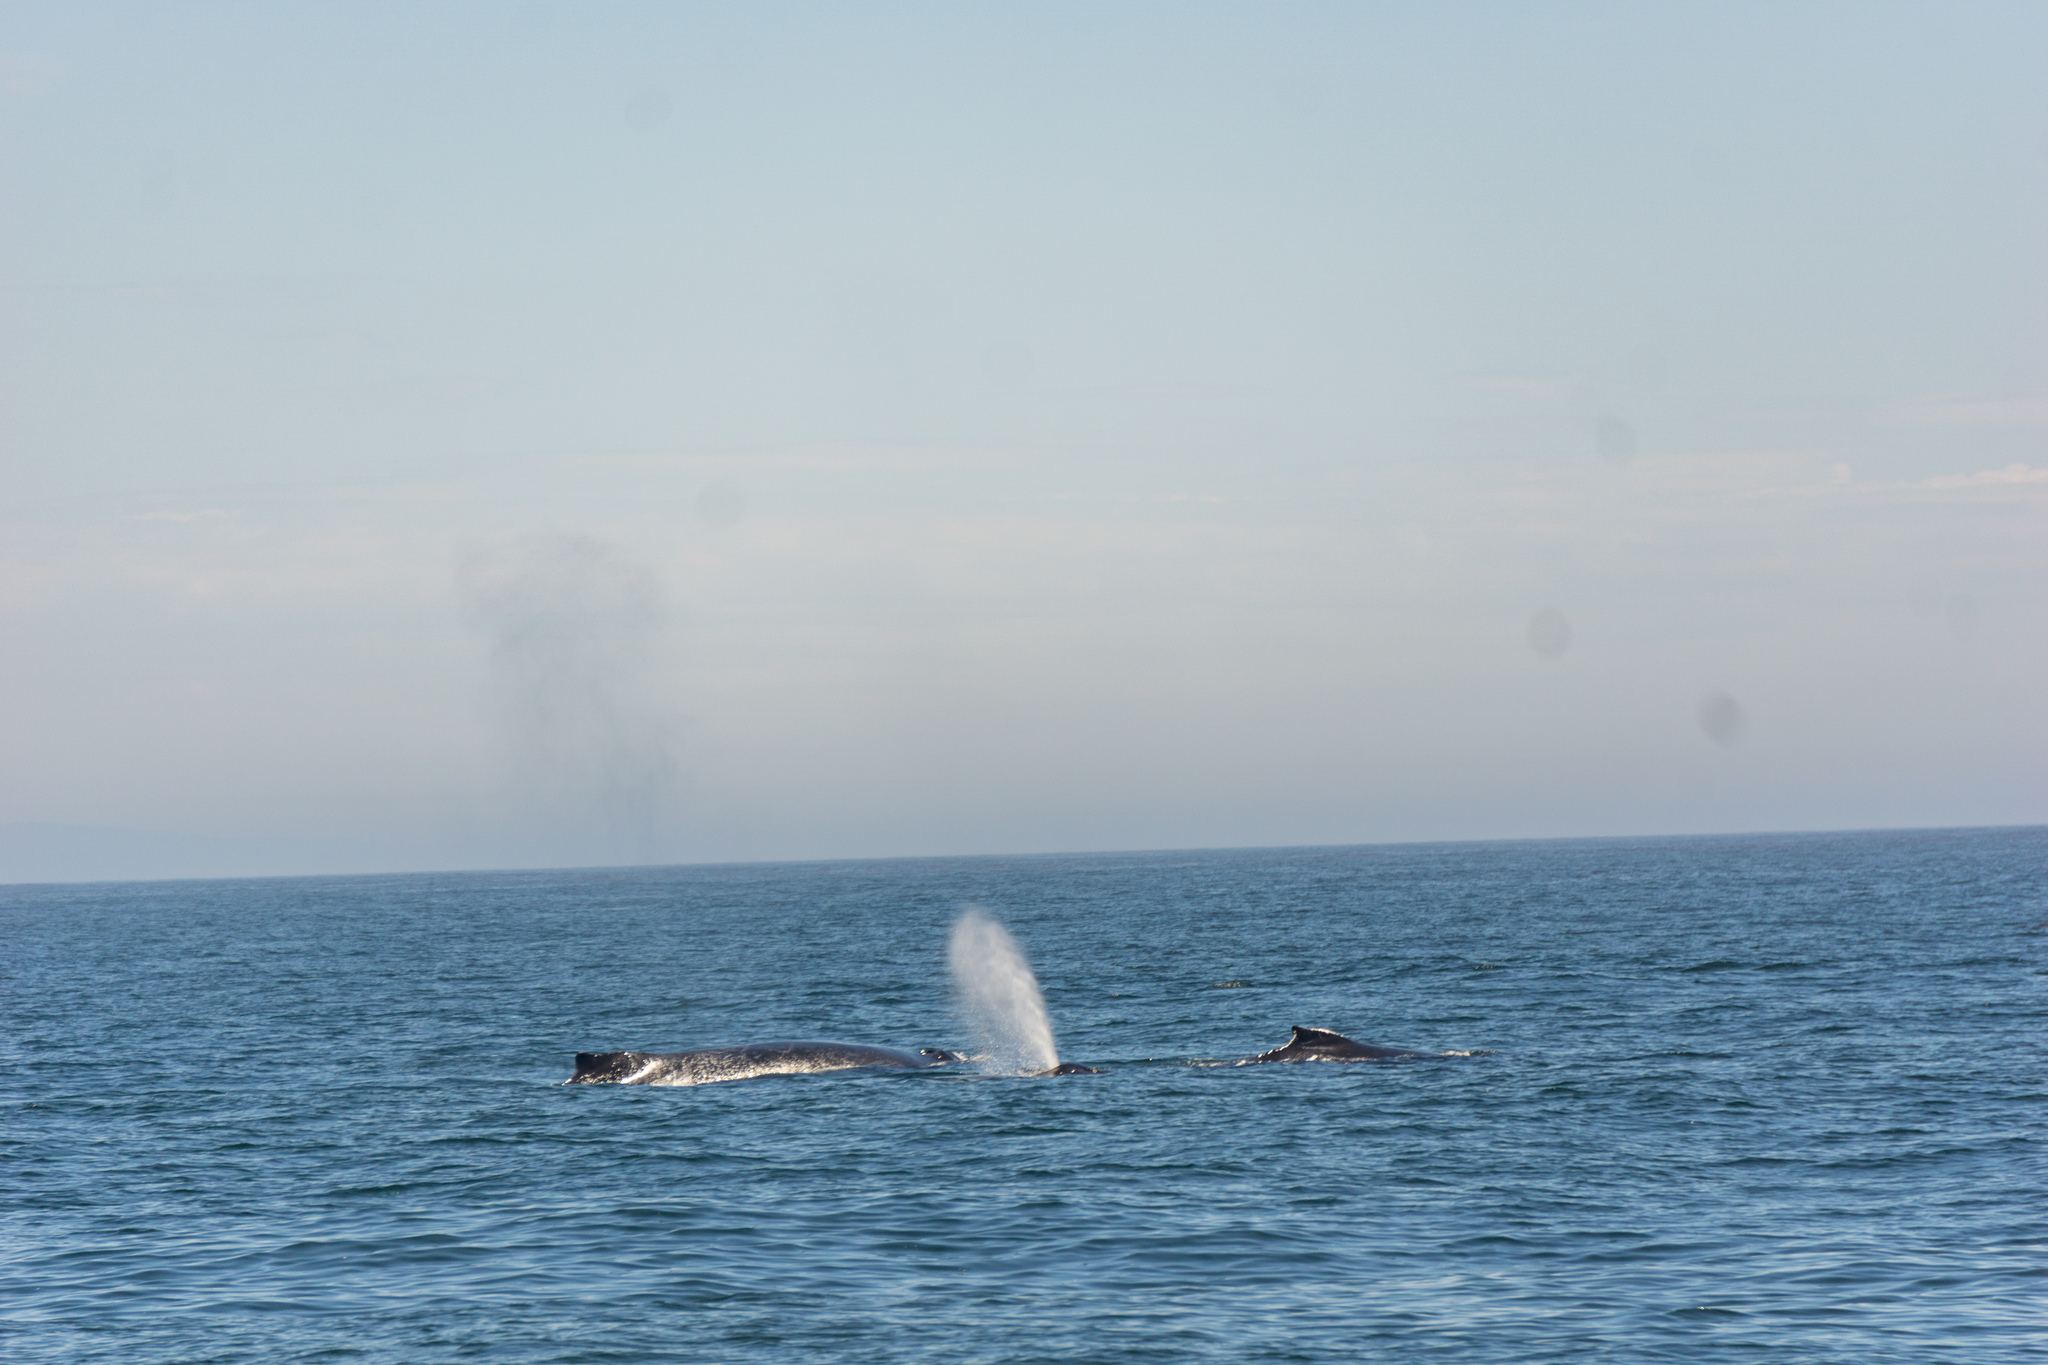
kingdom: Animalia
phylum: Chordata
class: Mammalia
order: Cetacea
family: Balaenopteridae
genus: Megaptera
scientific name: Megaptera novaeangliae
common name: Humpback whale
